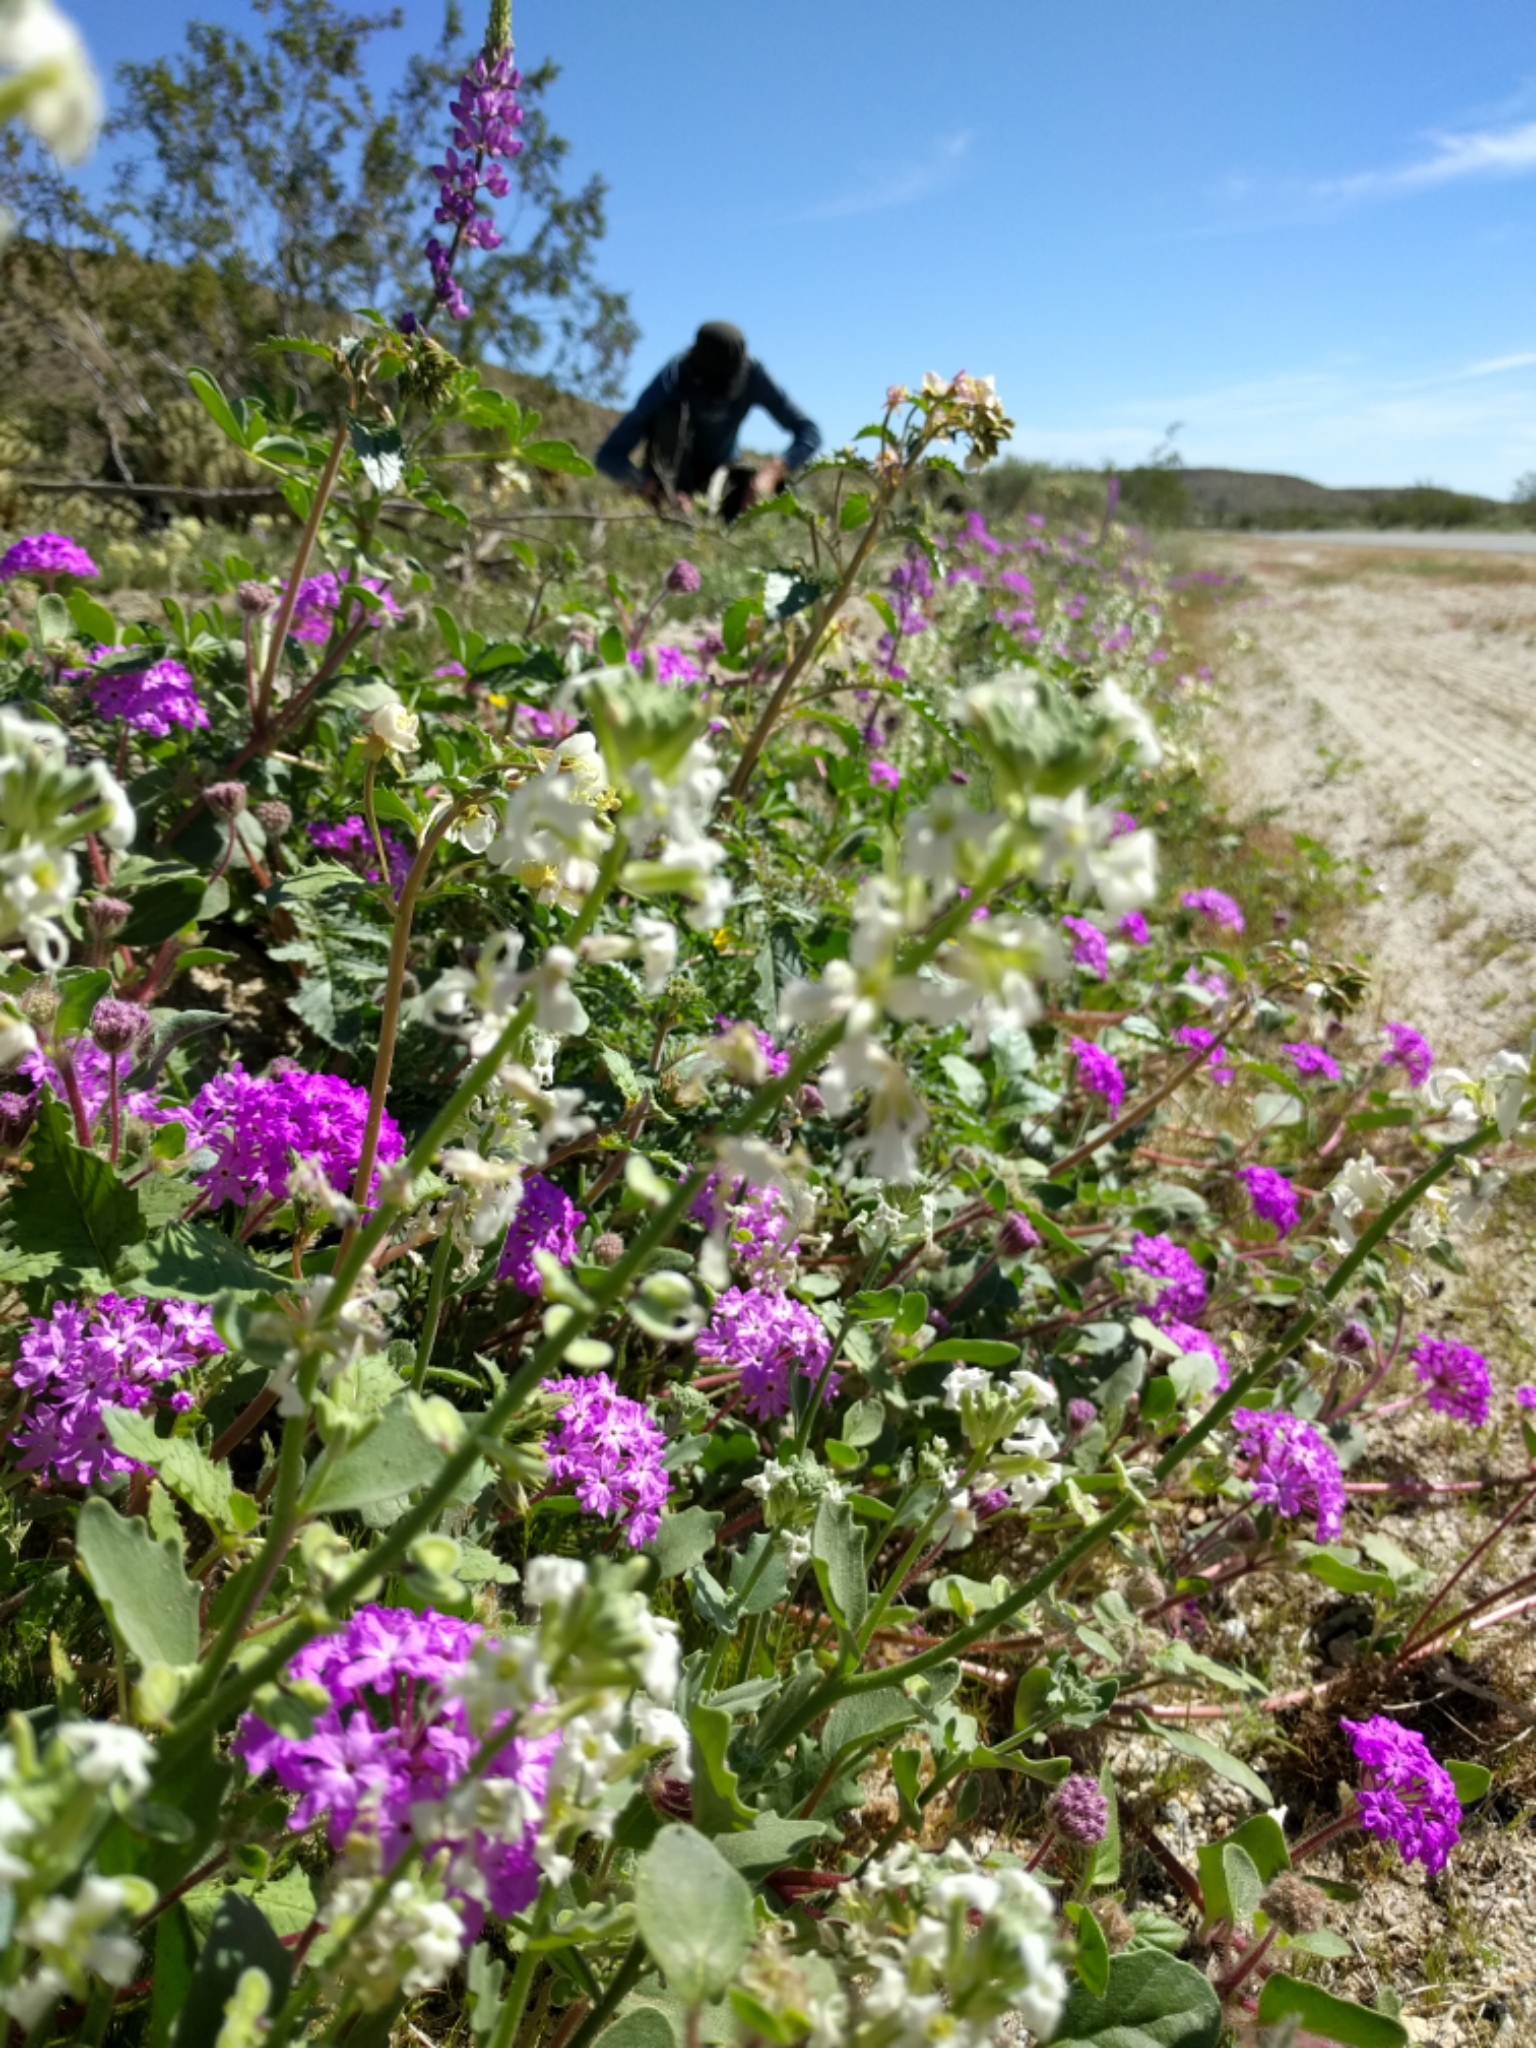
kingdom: Plantae
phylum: Tracheophyta
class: Magnoliopsida
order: Caryophyllales
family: Nyctaginaceae
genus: Abronia
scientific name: Abronia villosa
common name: Desert sand-verbena
